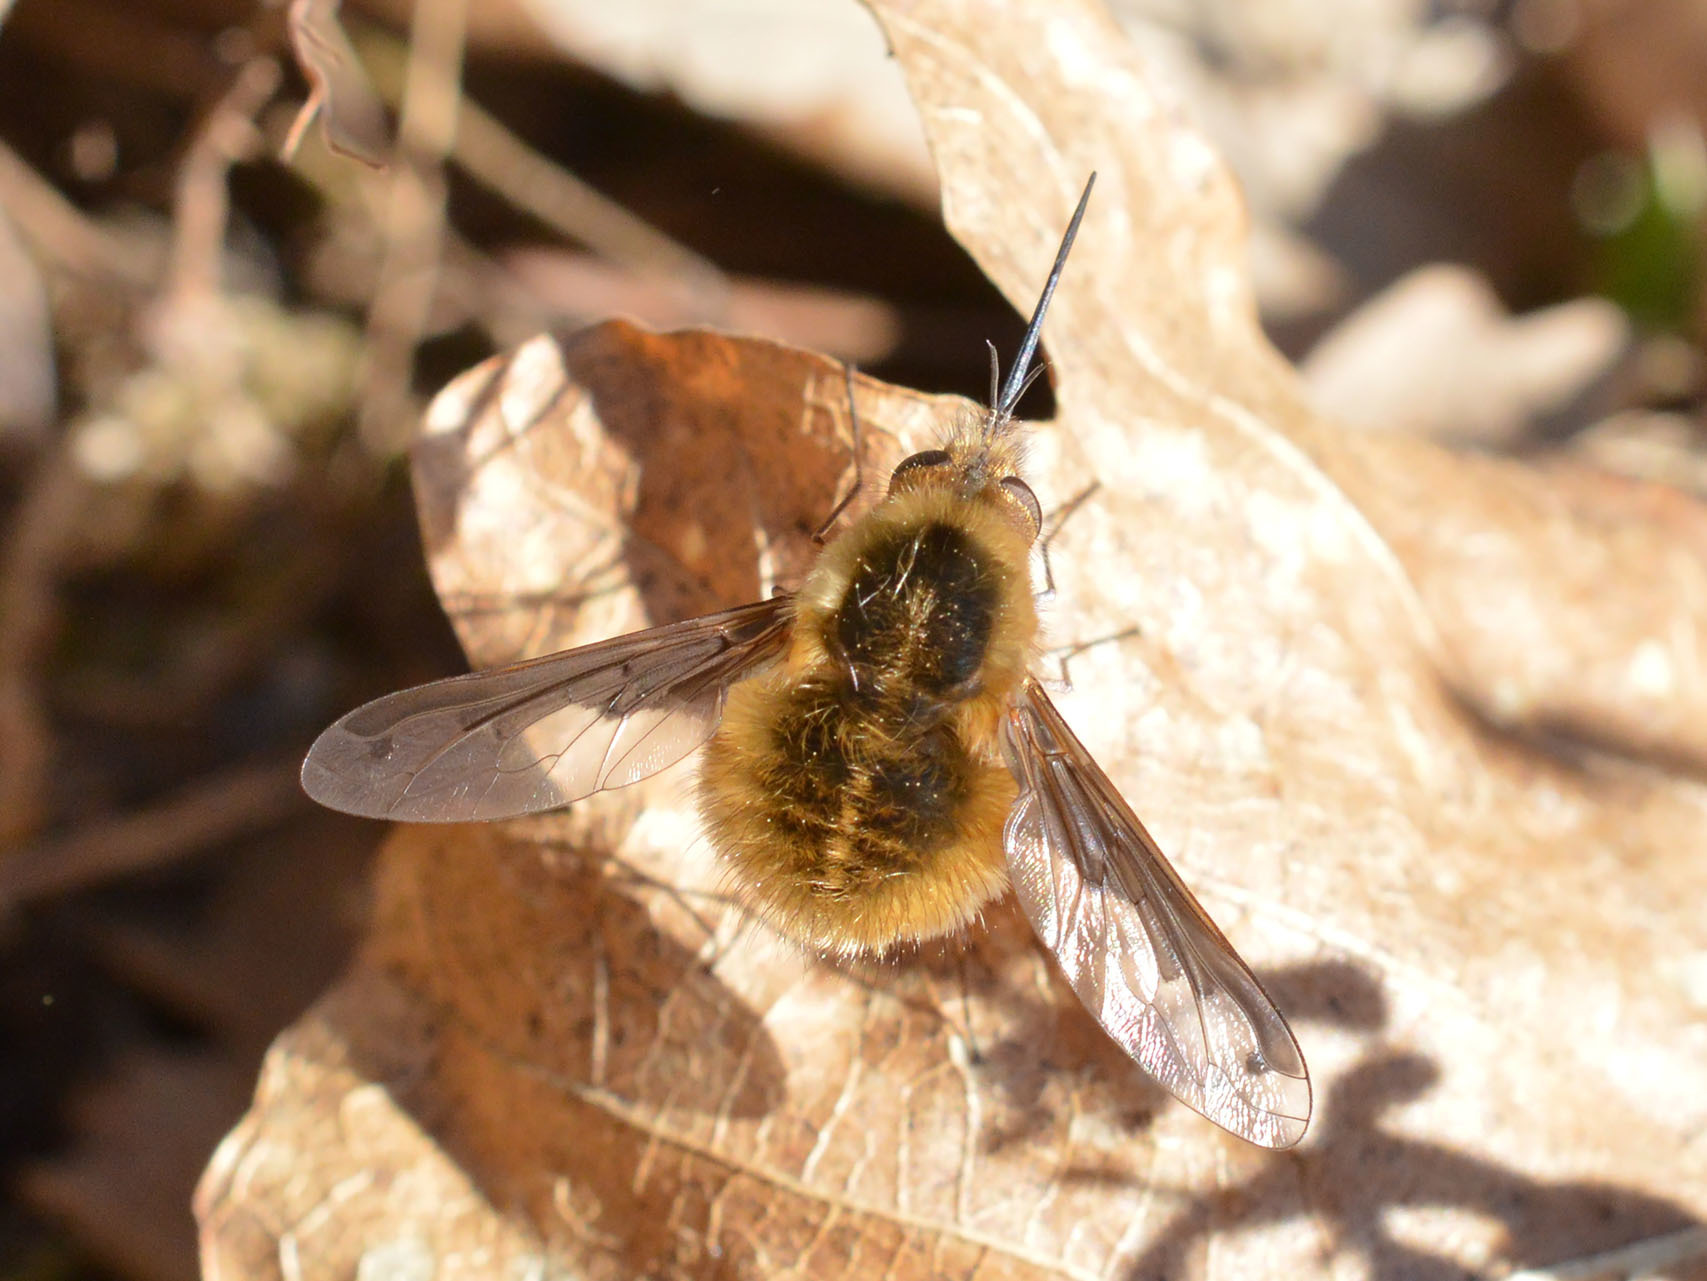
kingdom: Animalia
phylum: Arthropoda
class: Insecta
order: Diptera
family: Bombyliidae
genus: Bombylius
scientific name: Bombylius major
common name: Bee fly
